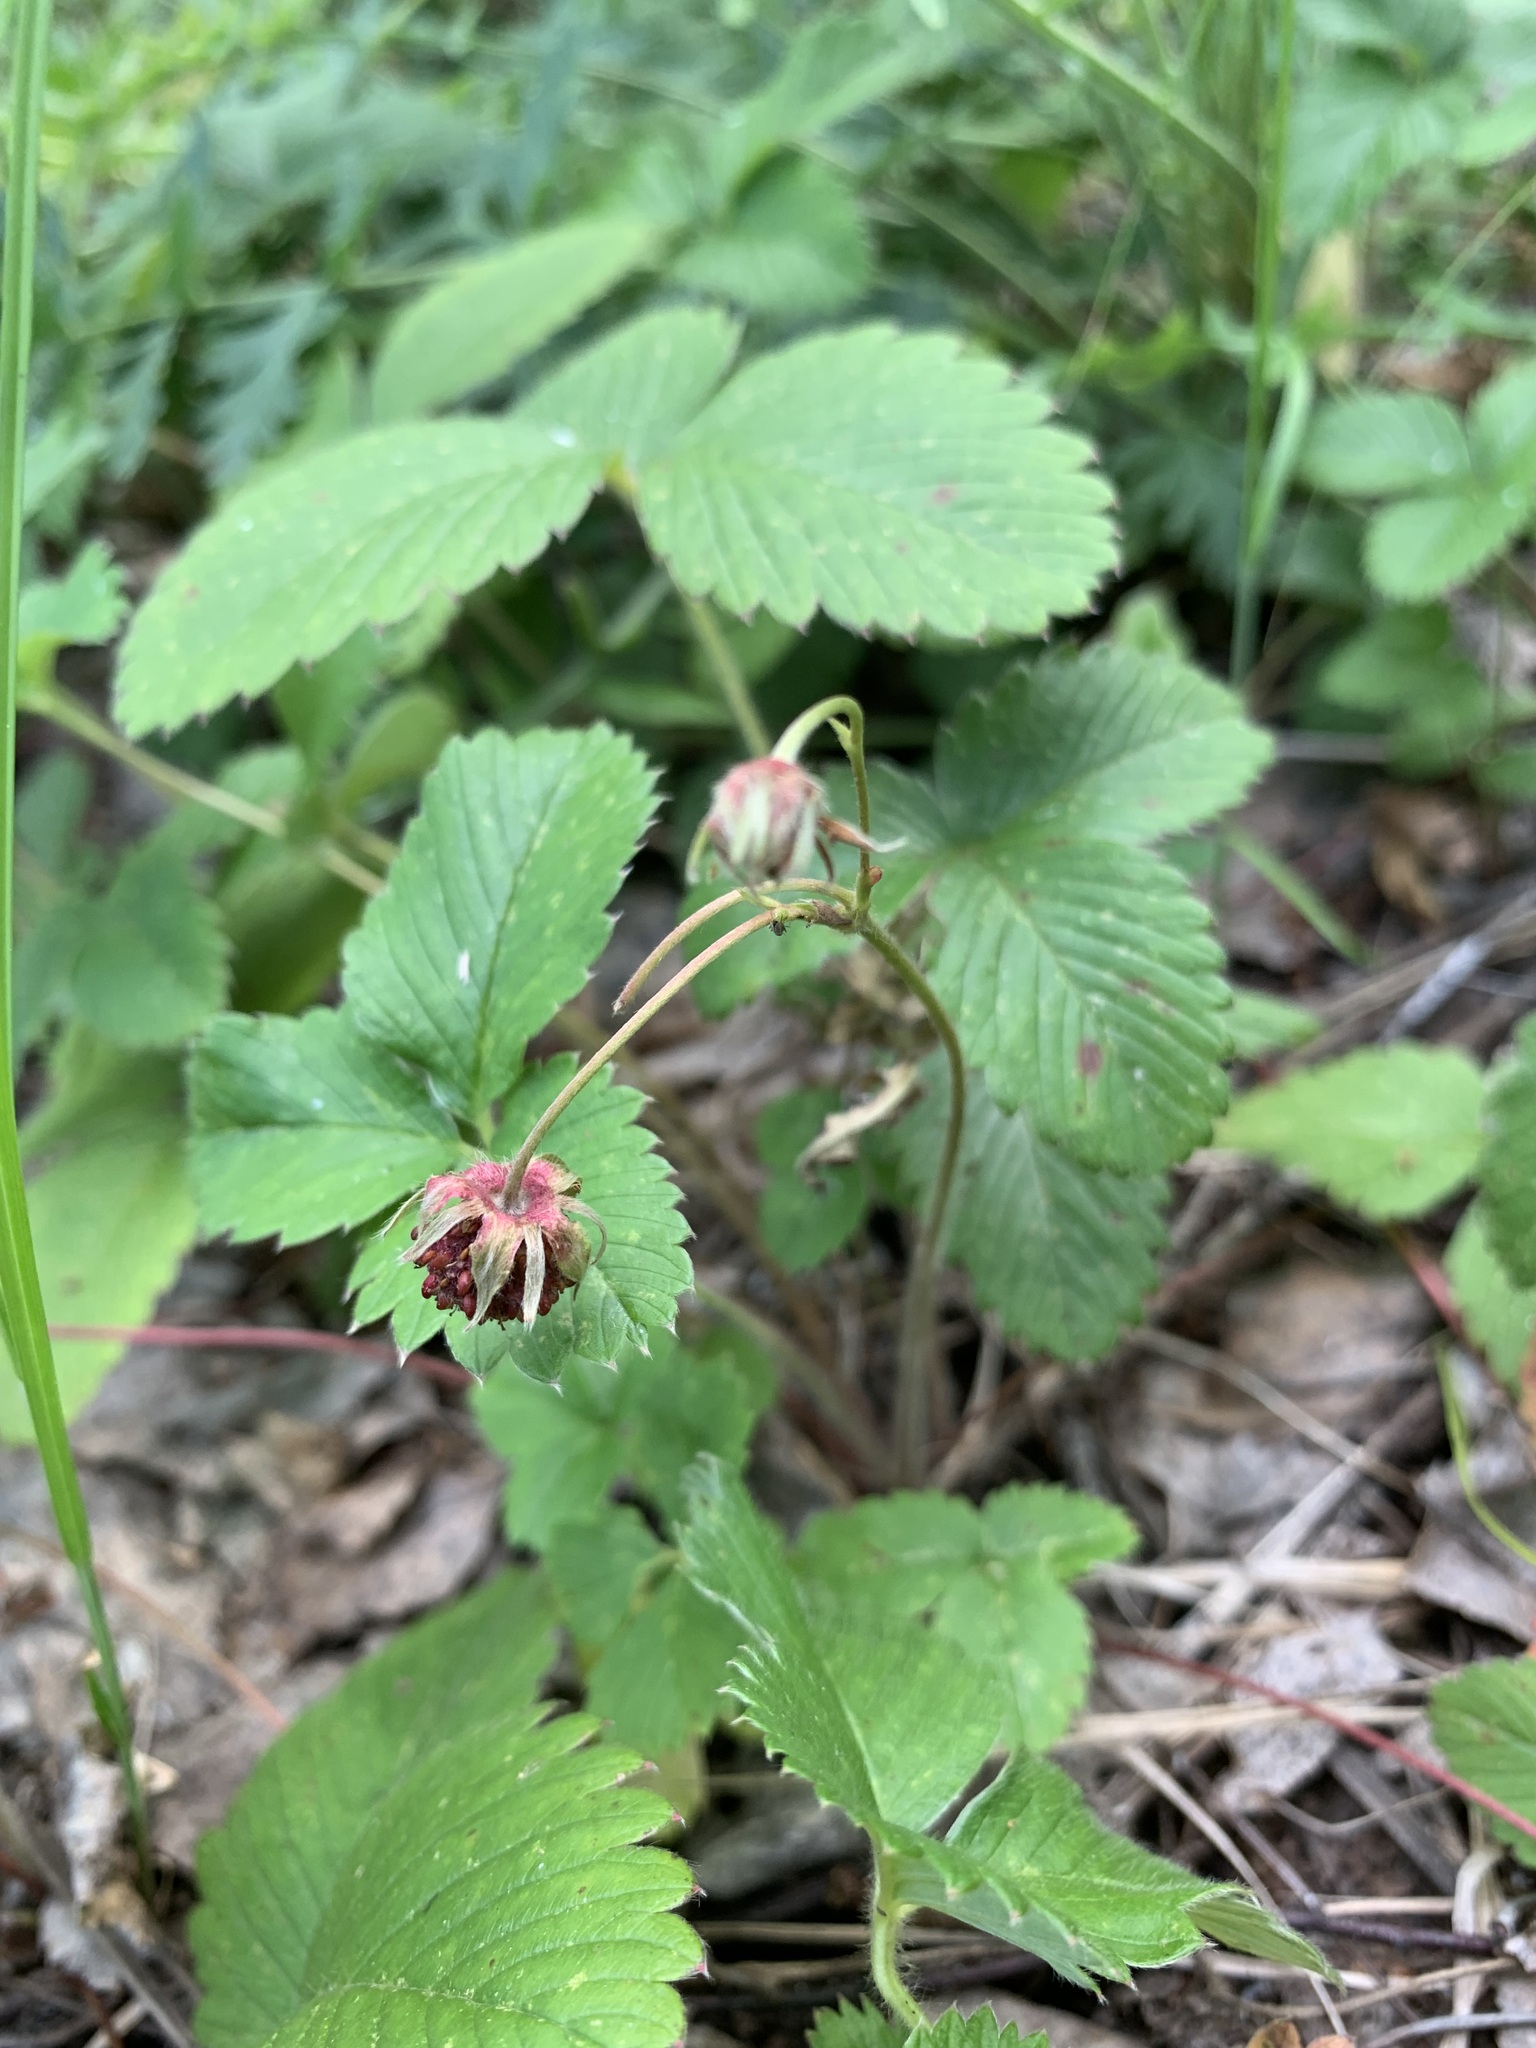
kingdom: Plantae
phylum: Tracheophyta
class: Magnoliopsida
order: Rosales
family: Rosaceae
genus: Fragaria
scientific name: Fragaria viridis
